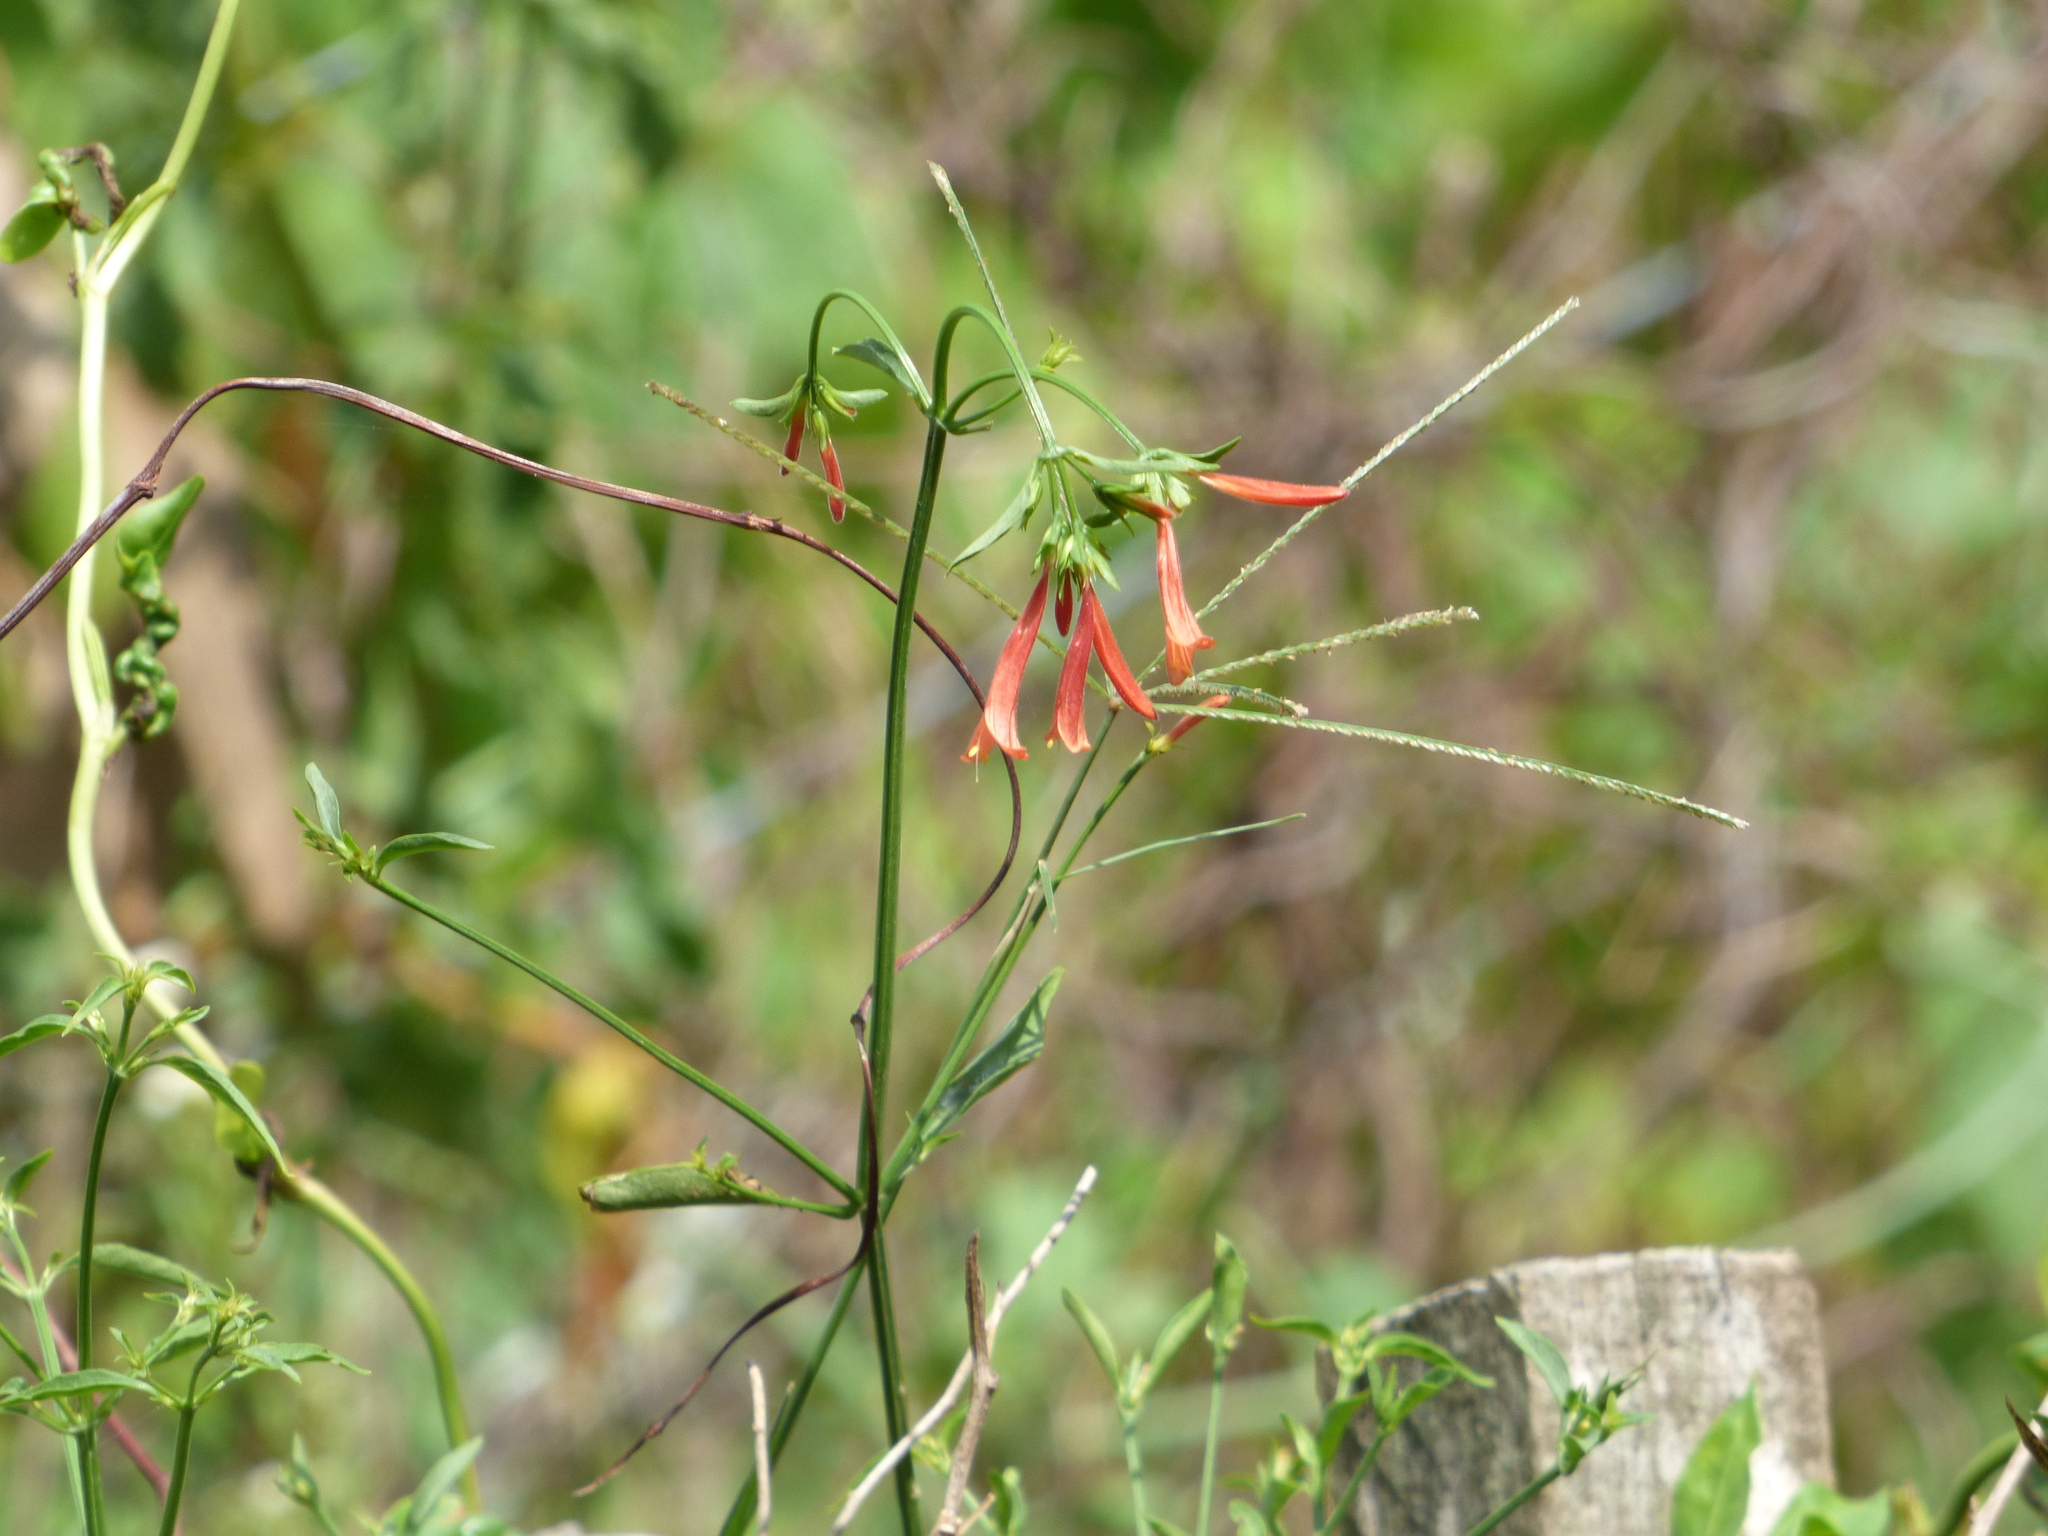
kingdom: Plantae
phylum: Tracheophyta
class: Magnoliopsida
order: Lamiales
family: Acanthaceae
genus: Dicliptera
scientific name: Dicliptera squarrosa
